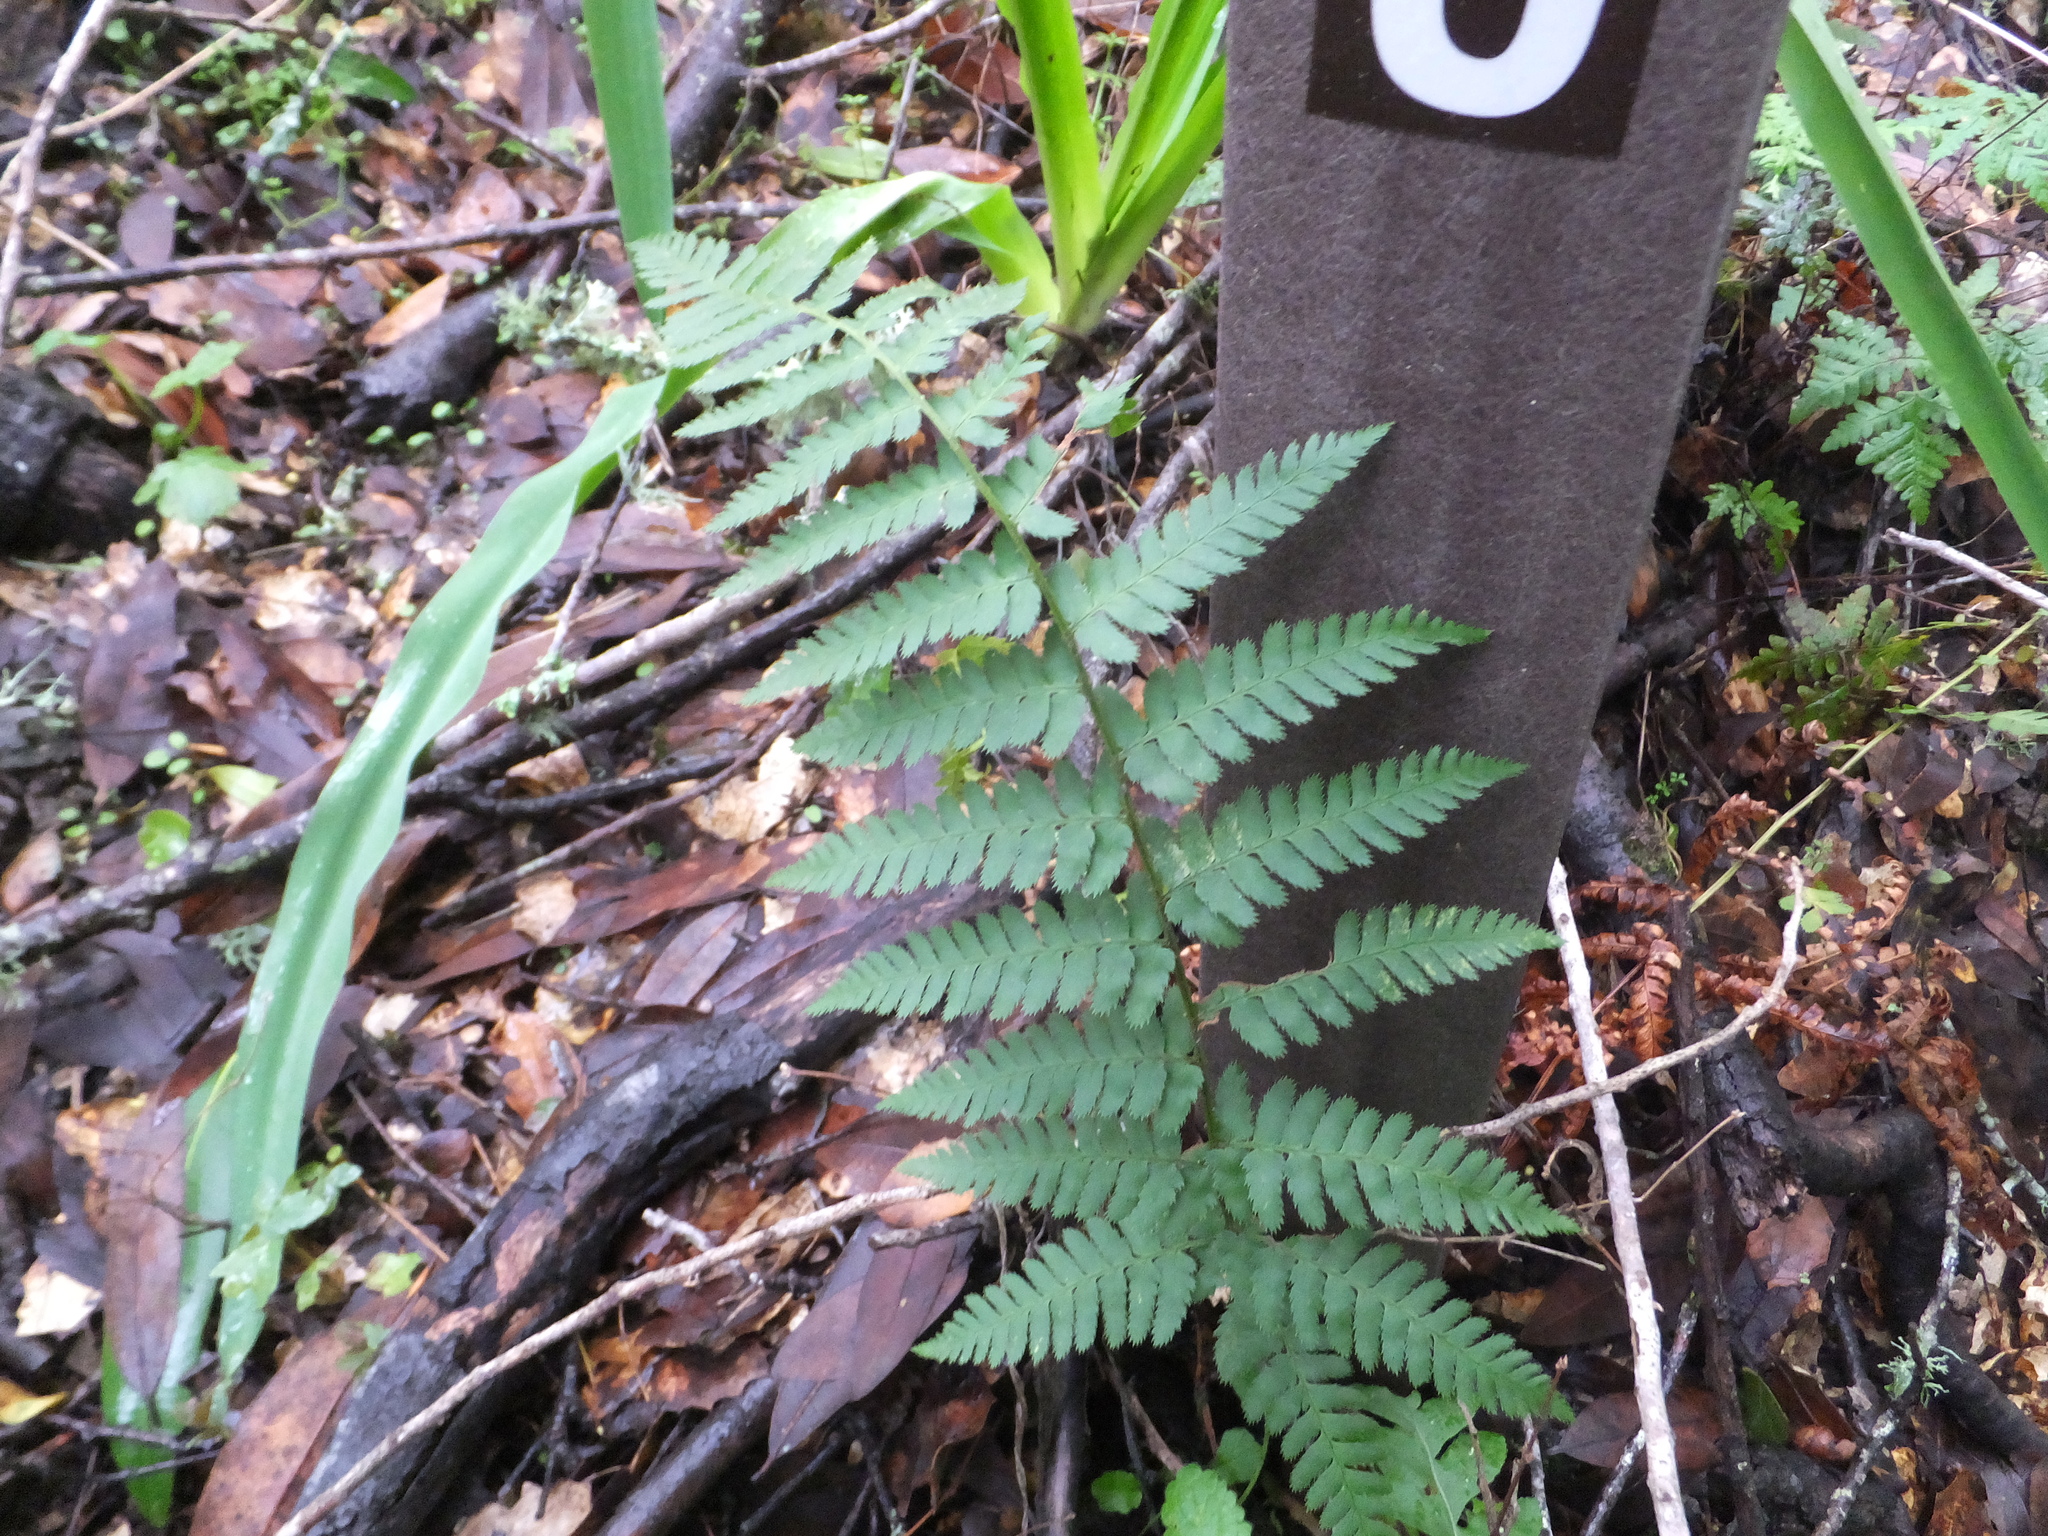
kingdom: Plantae
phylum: Tracheophyta
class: Polypodiopsida
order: Polypodiales
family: Dryopteridaceae
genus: Dryopteris
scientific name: Dryopteris arguta
